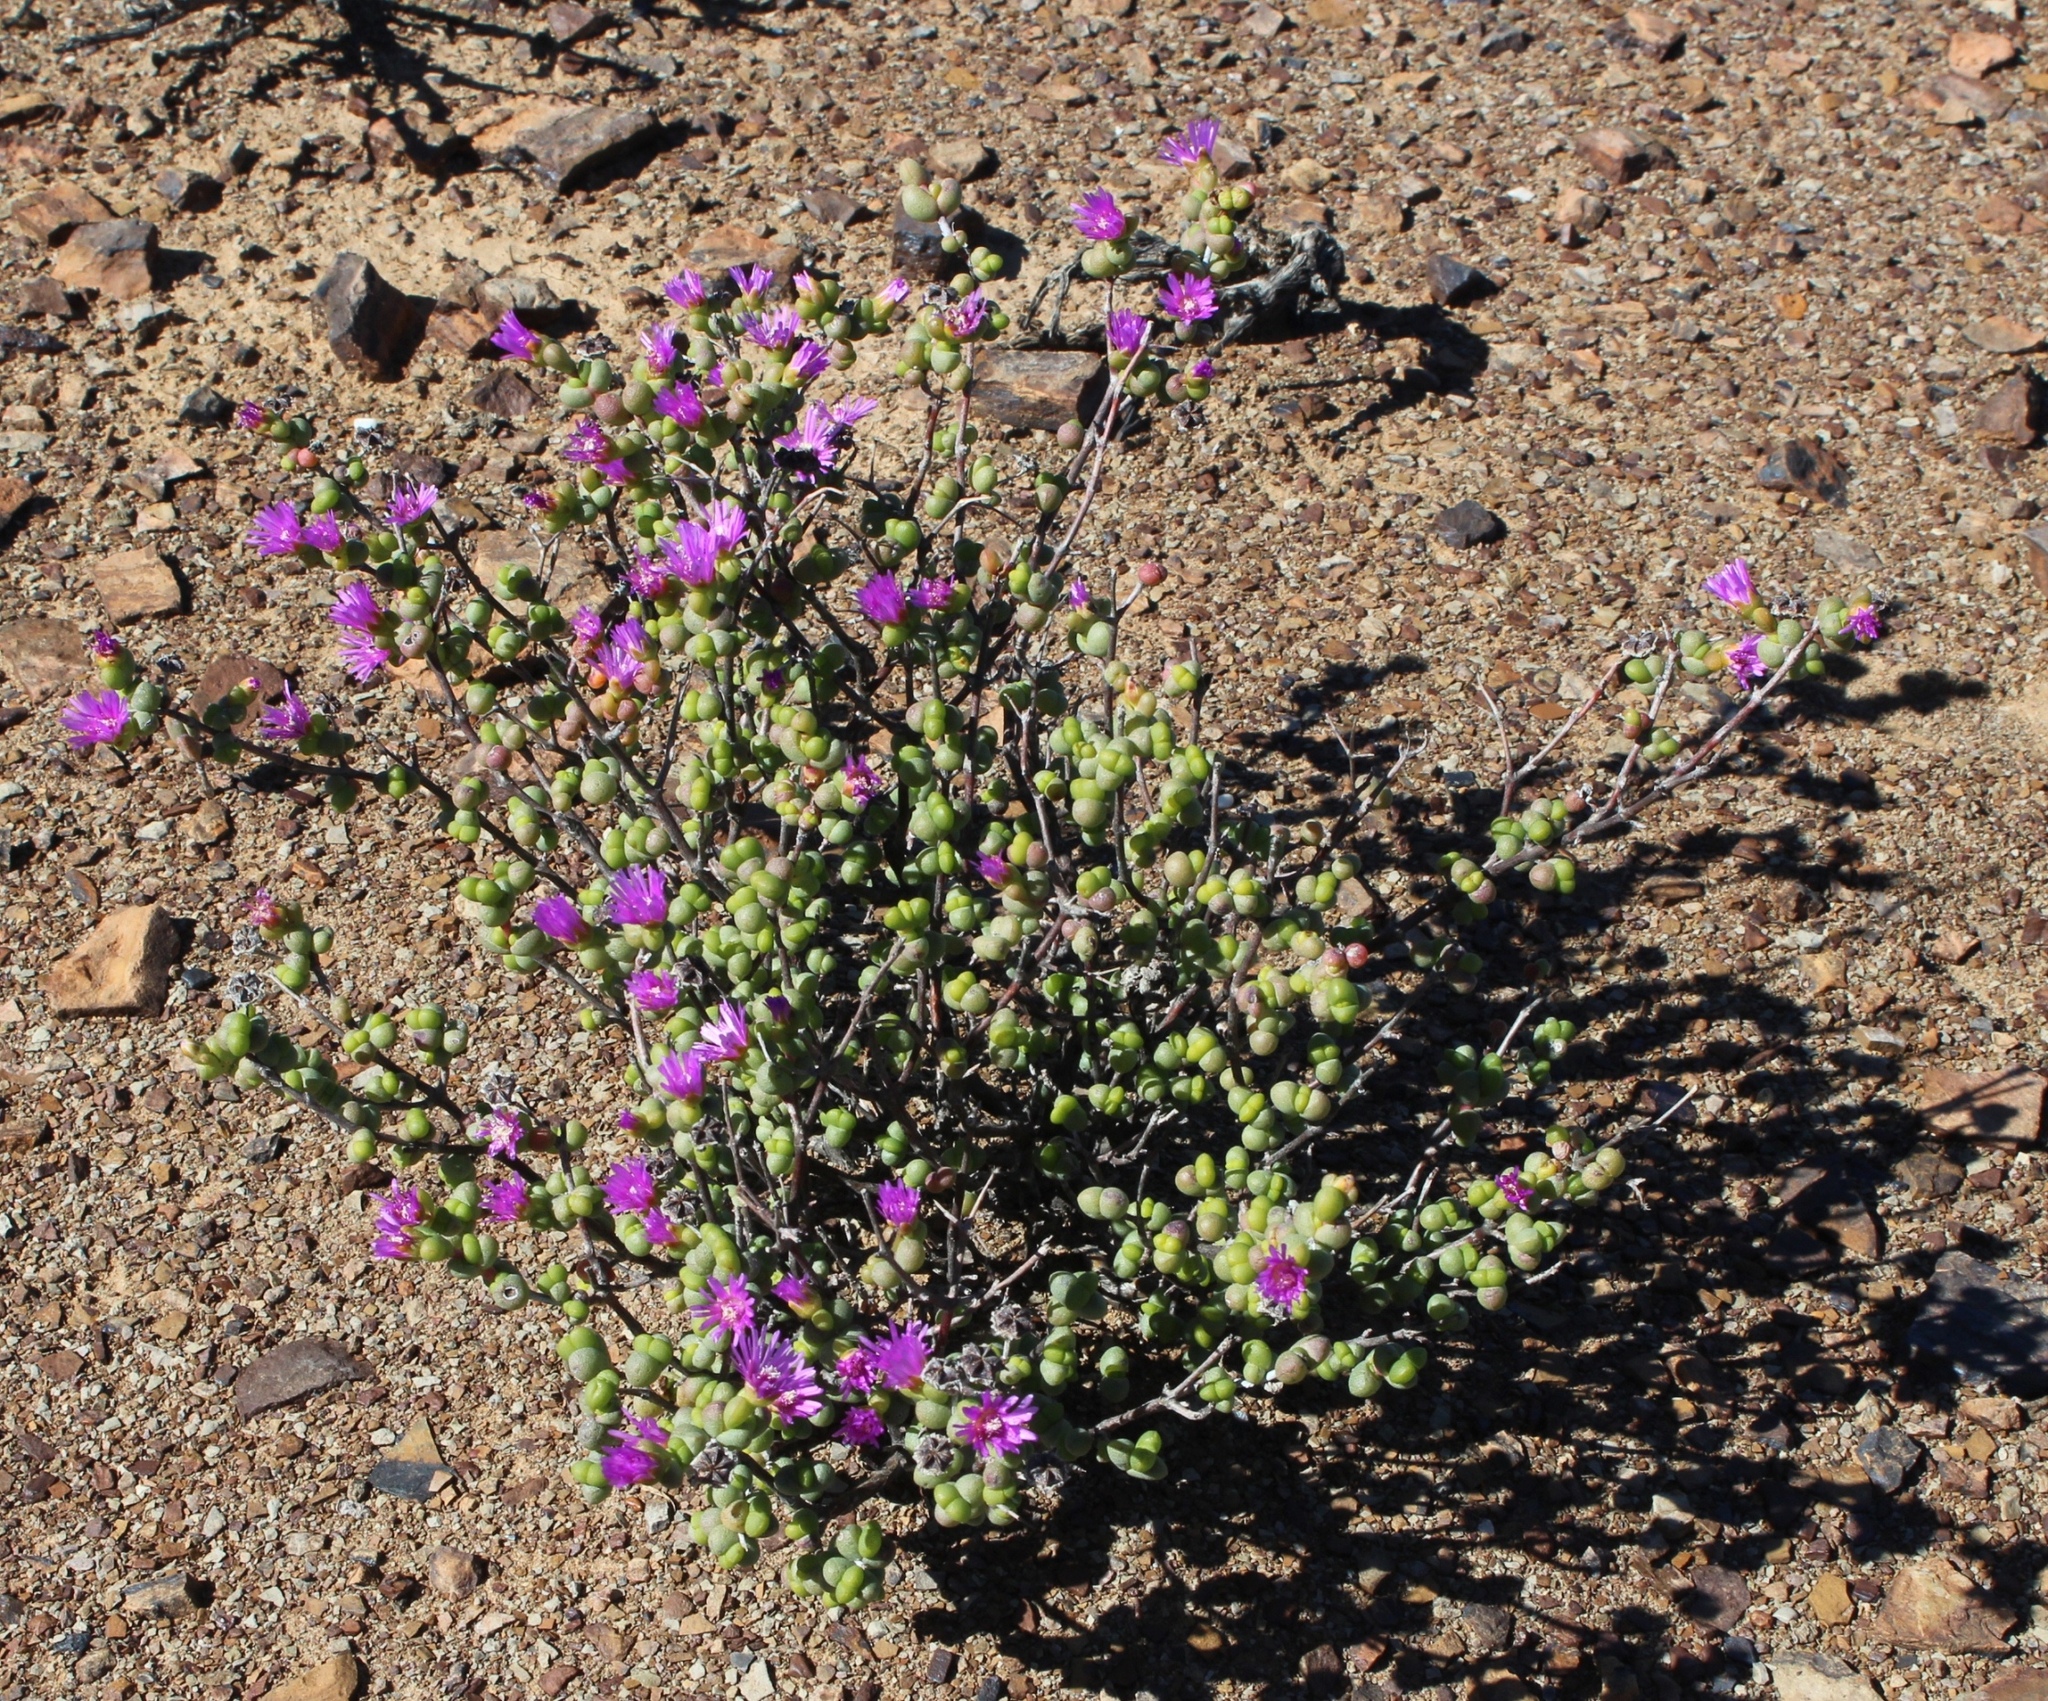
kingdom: Plantae
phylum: Tracheophyta
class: Magnoliopsida
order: Caryophyllales
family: Aizoaceae
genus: Ruschia
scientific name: Ruschia cradockensis
